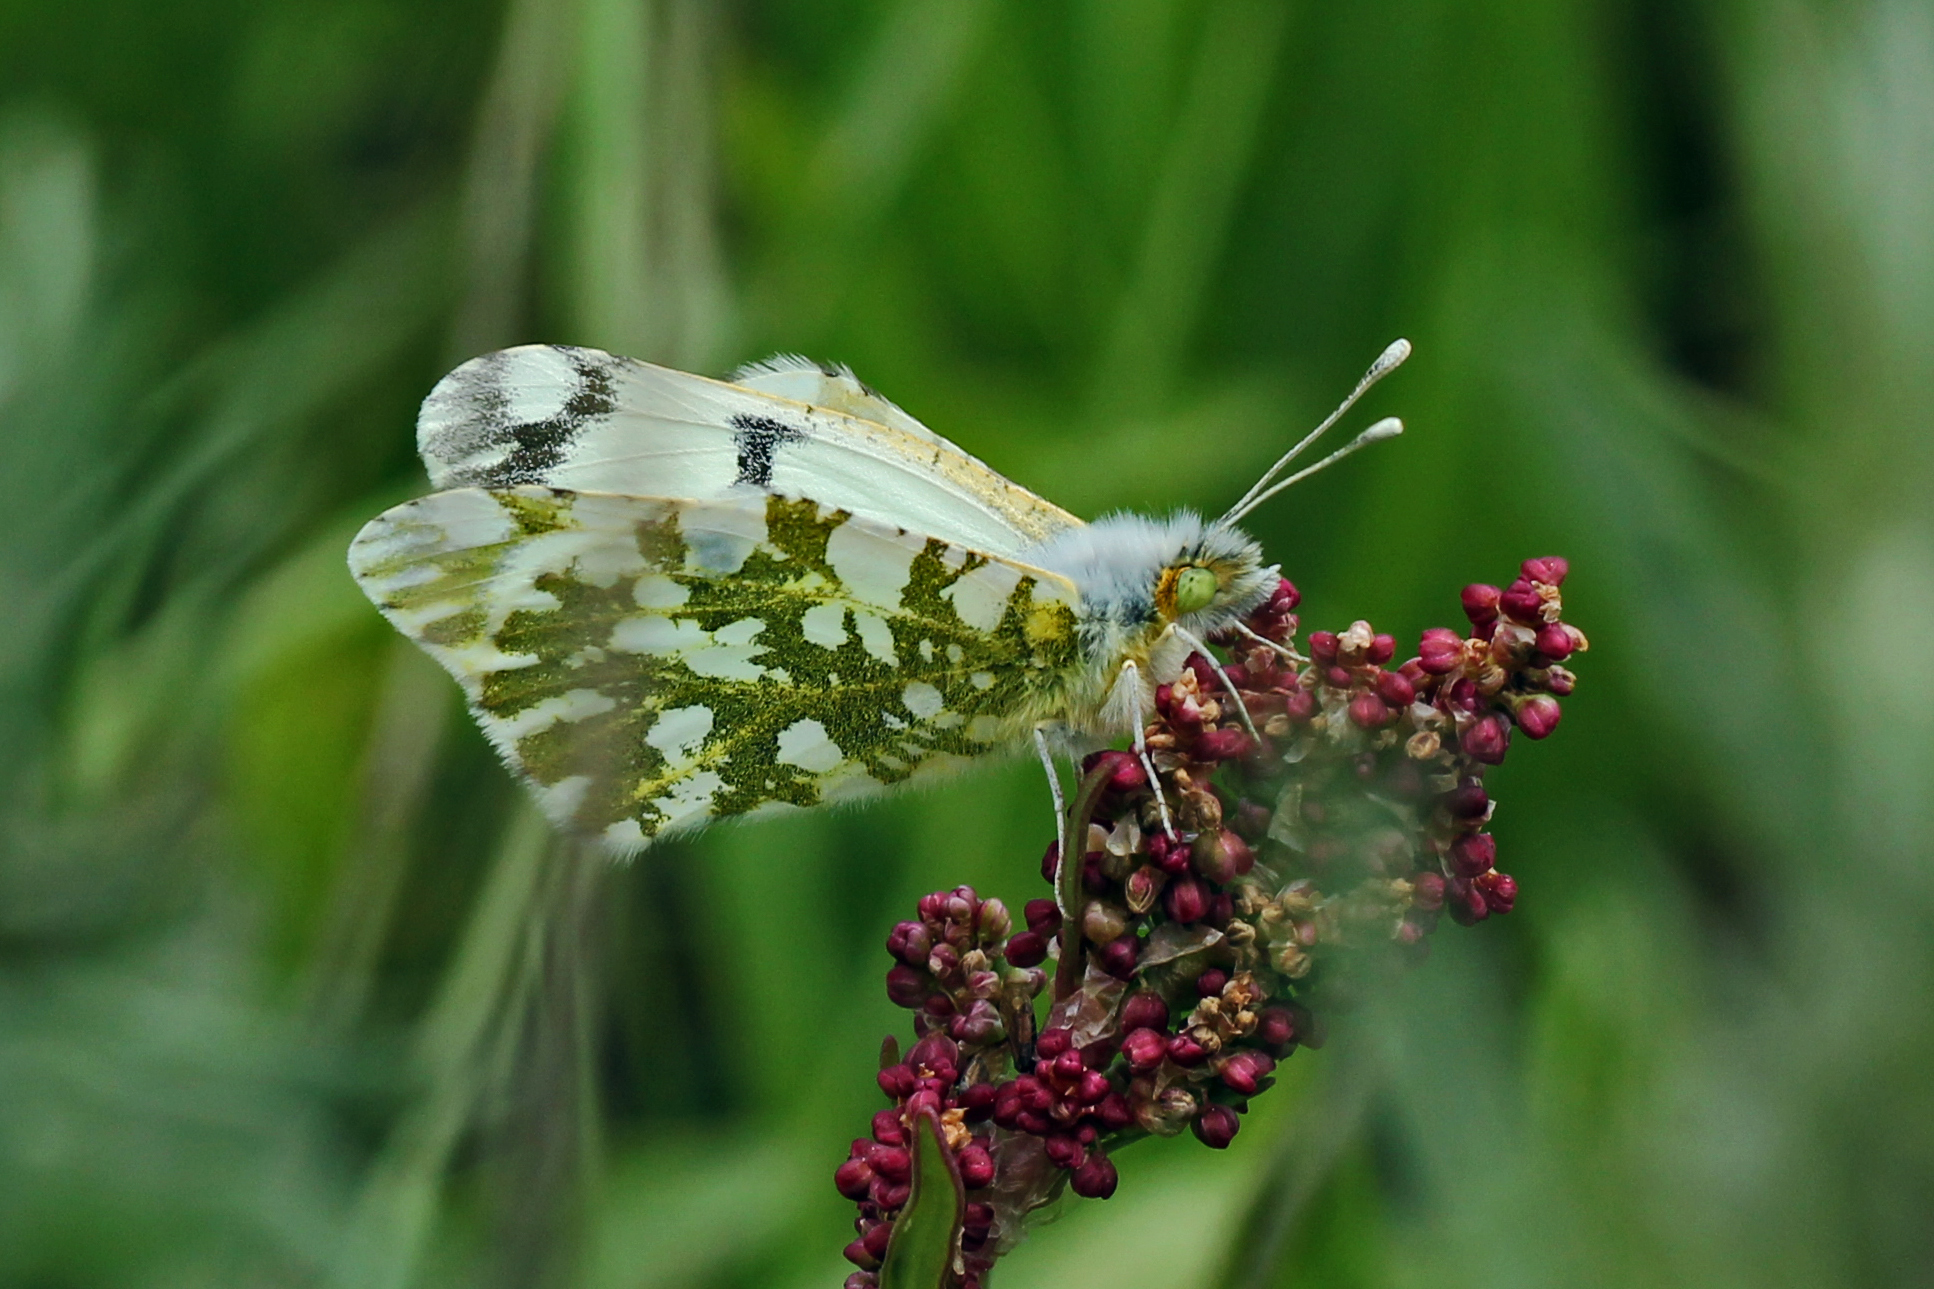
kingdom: Animalia
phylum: Arthropoda
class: Insecta
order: Lepidoptera
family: Pieridae
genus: Euchloe
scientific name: Euchloe ausonides
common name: Creamy marblewing
